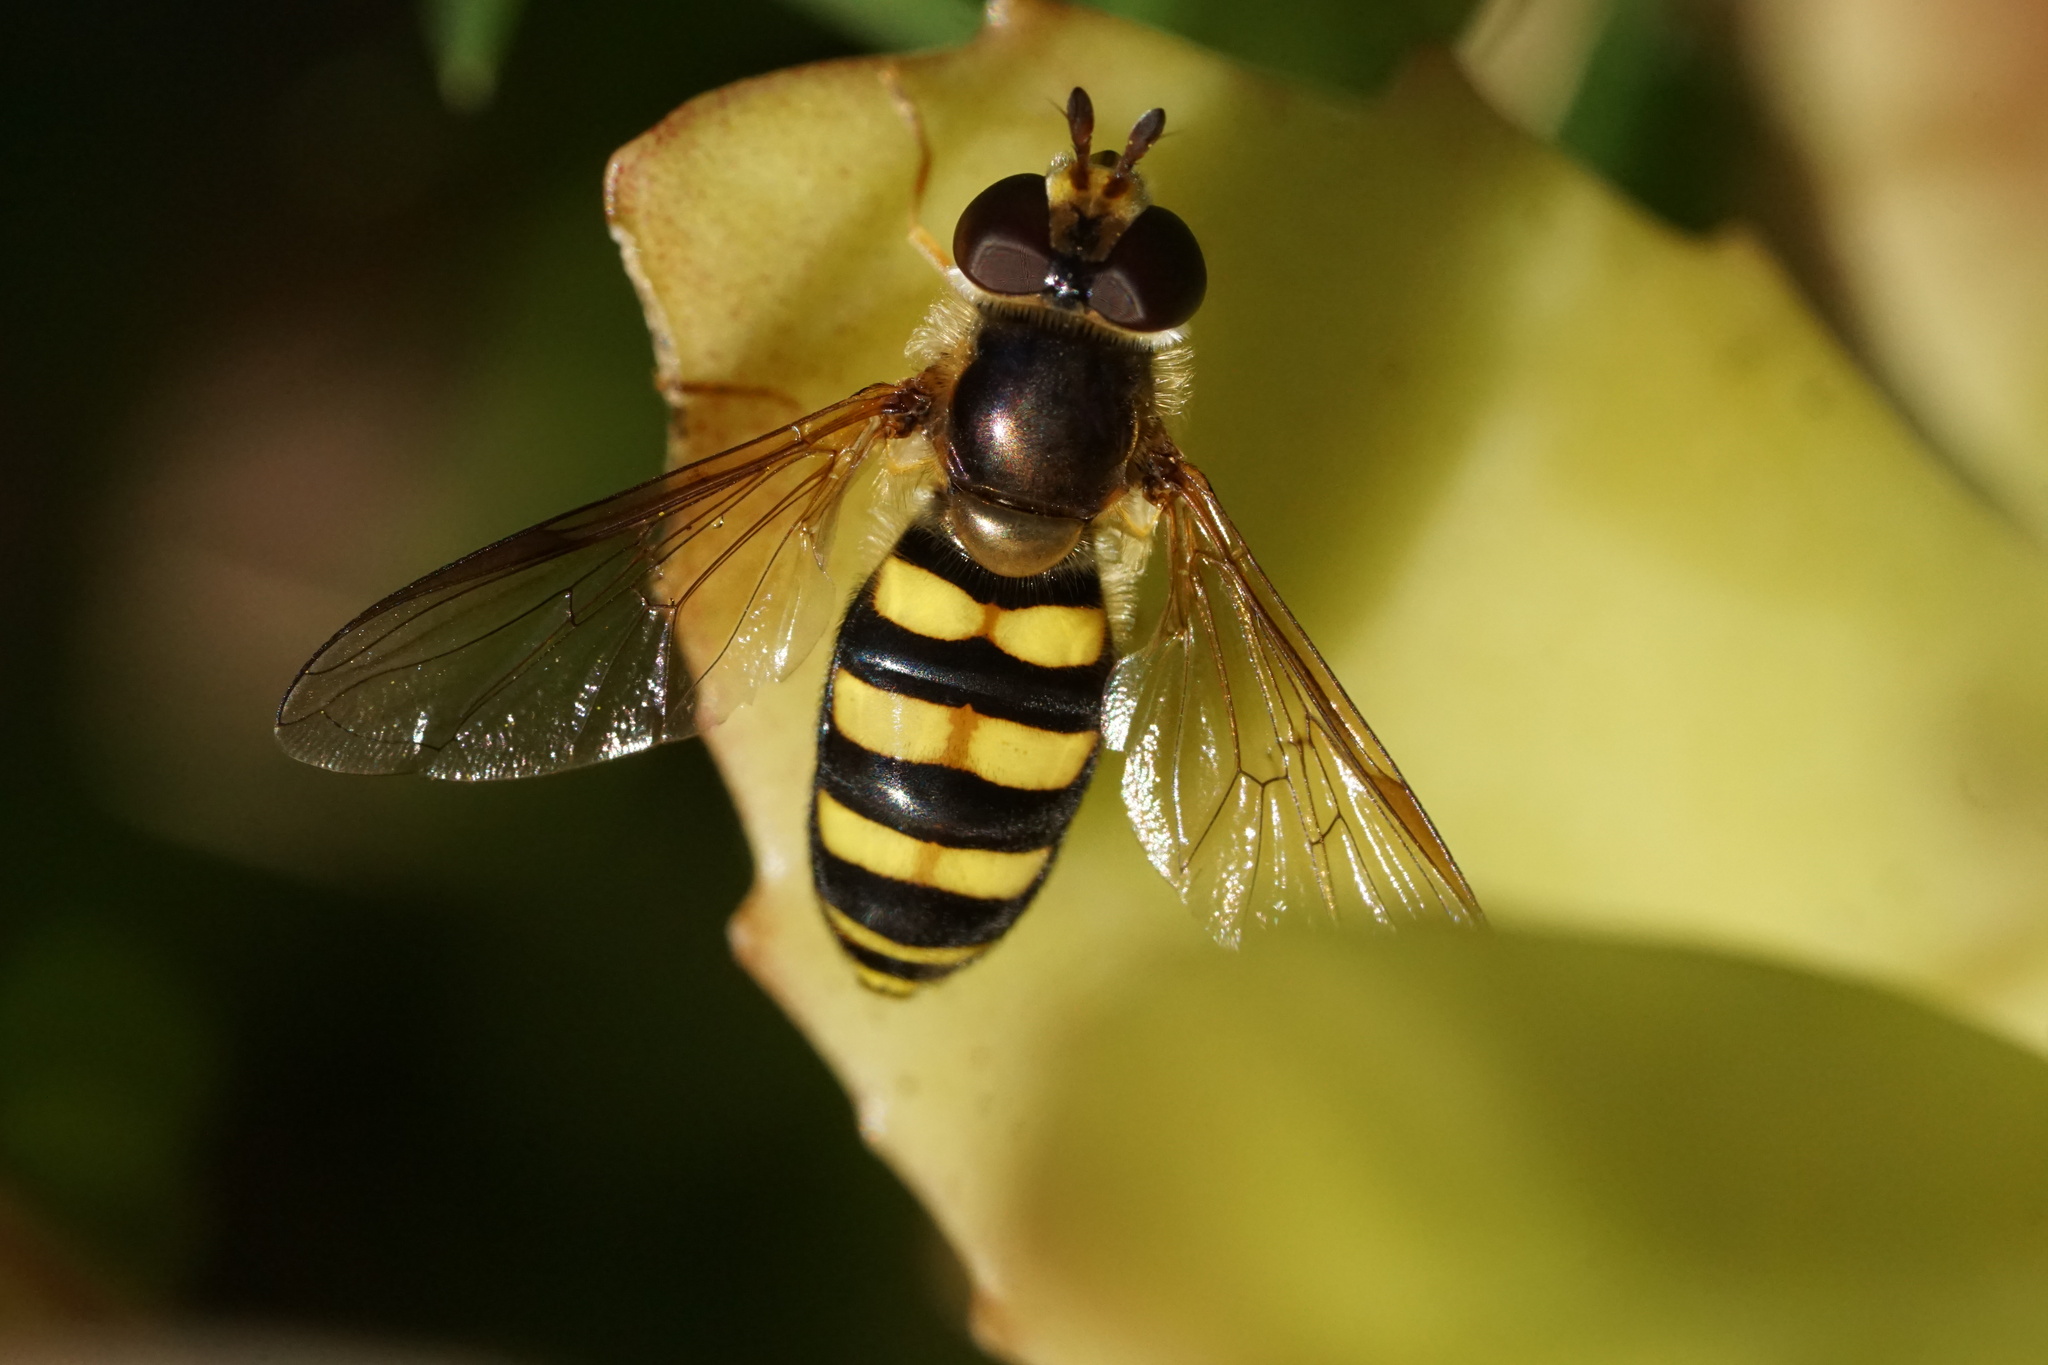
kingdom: Animalia
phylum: Arthropoda
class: Insecta
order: Diptera
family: Syrphidae
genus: Eupeodes
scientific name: Eupeodes
